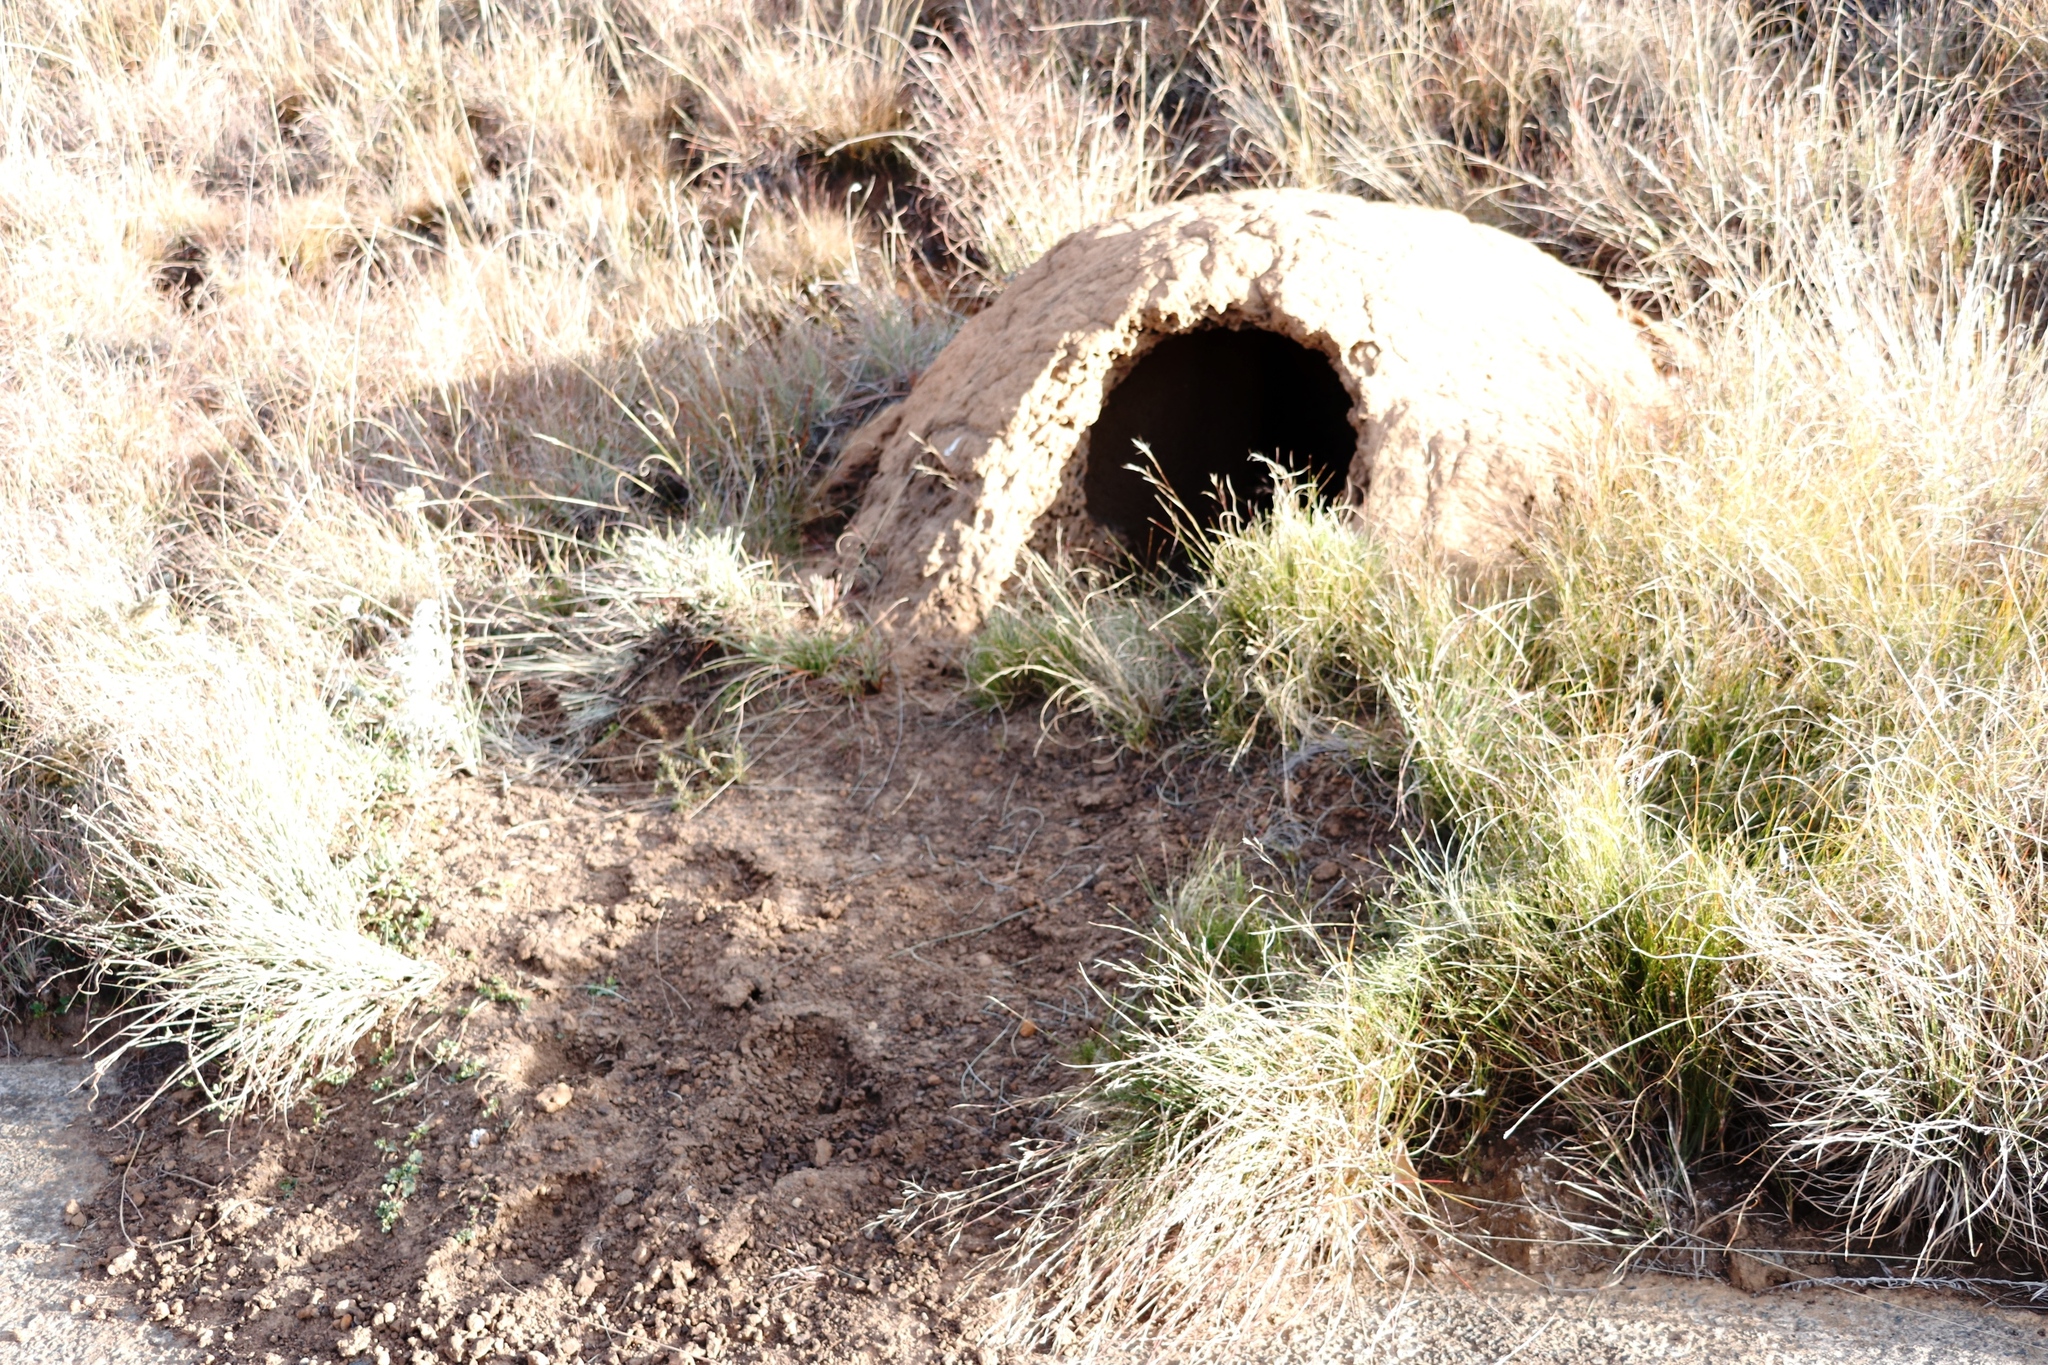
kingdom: Animalia
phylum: Chordata
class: Mammalia
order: Tubulidentata
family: Orycteropodidae
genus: Orycteropus
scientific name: Orycteropus afer
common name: Aardvark
